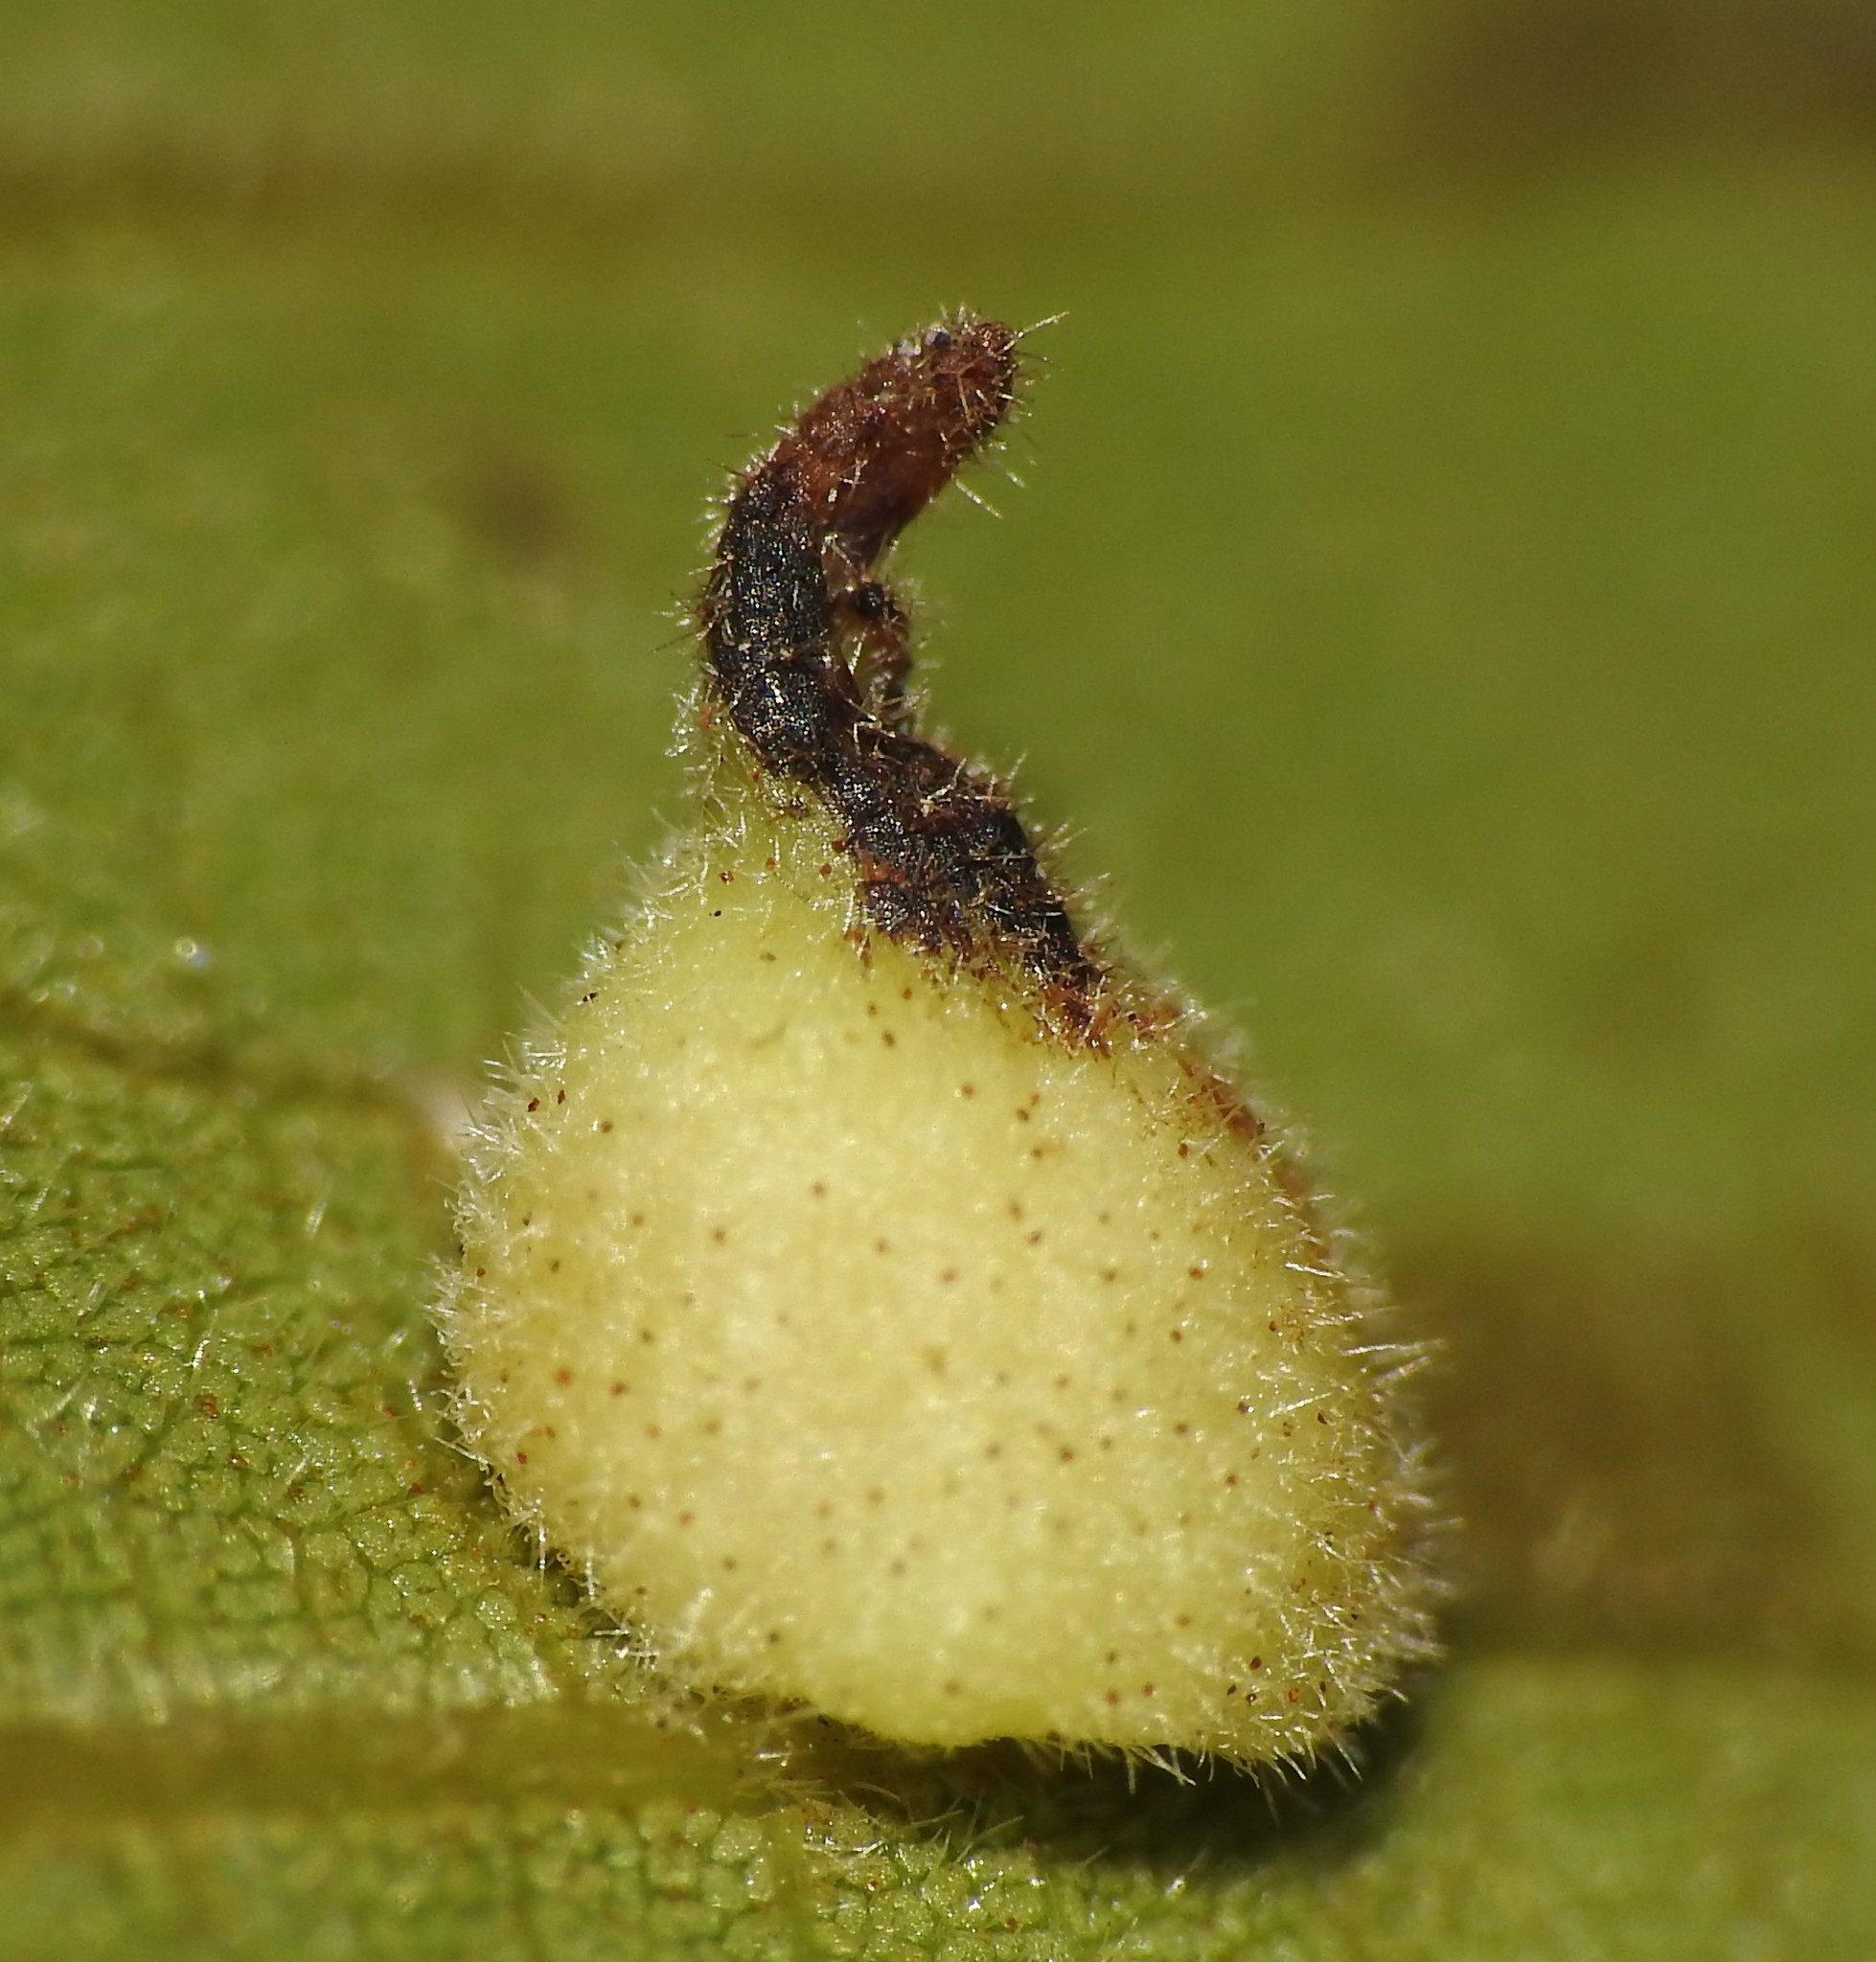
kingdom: Animalia
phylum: Arthropoda
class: Insecta
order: Diptera
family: Cecidomyiidae
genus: Caryomyia
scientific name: Caryomyia inclinata
